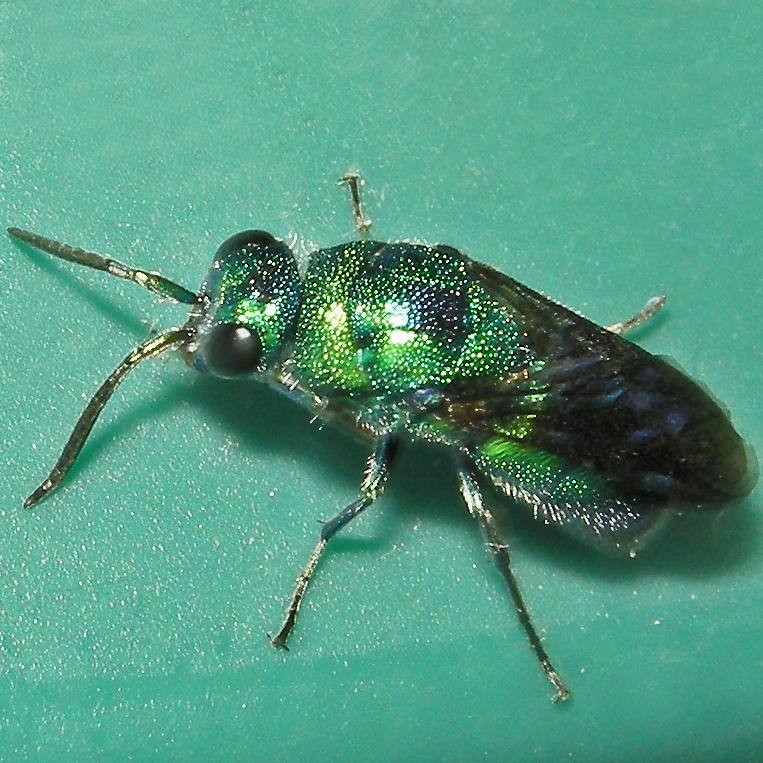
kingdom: Animalia
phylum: Arthropoda
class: Insecta
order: Hymenoptera
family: Chrysididae
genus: Chrysis
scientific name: Chrysis angolensis
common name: Cuckoo wasp
